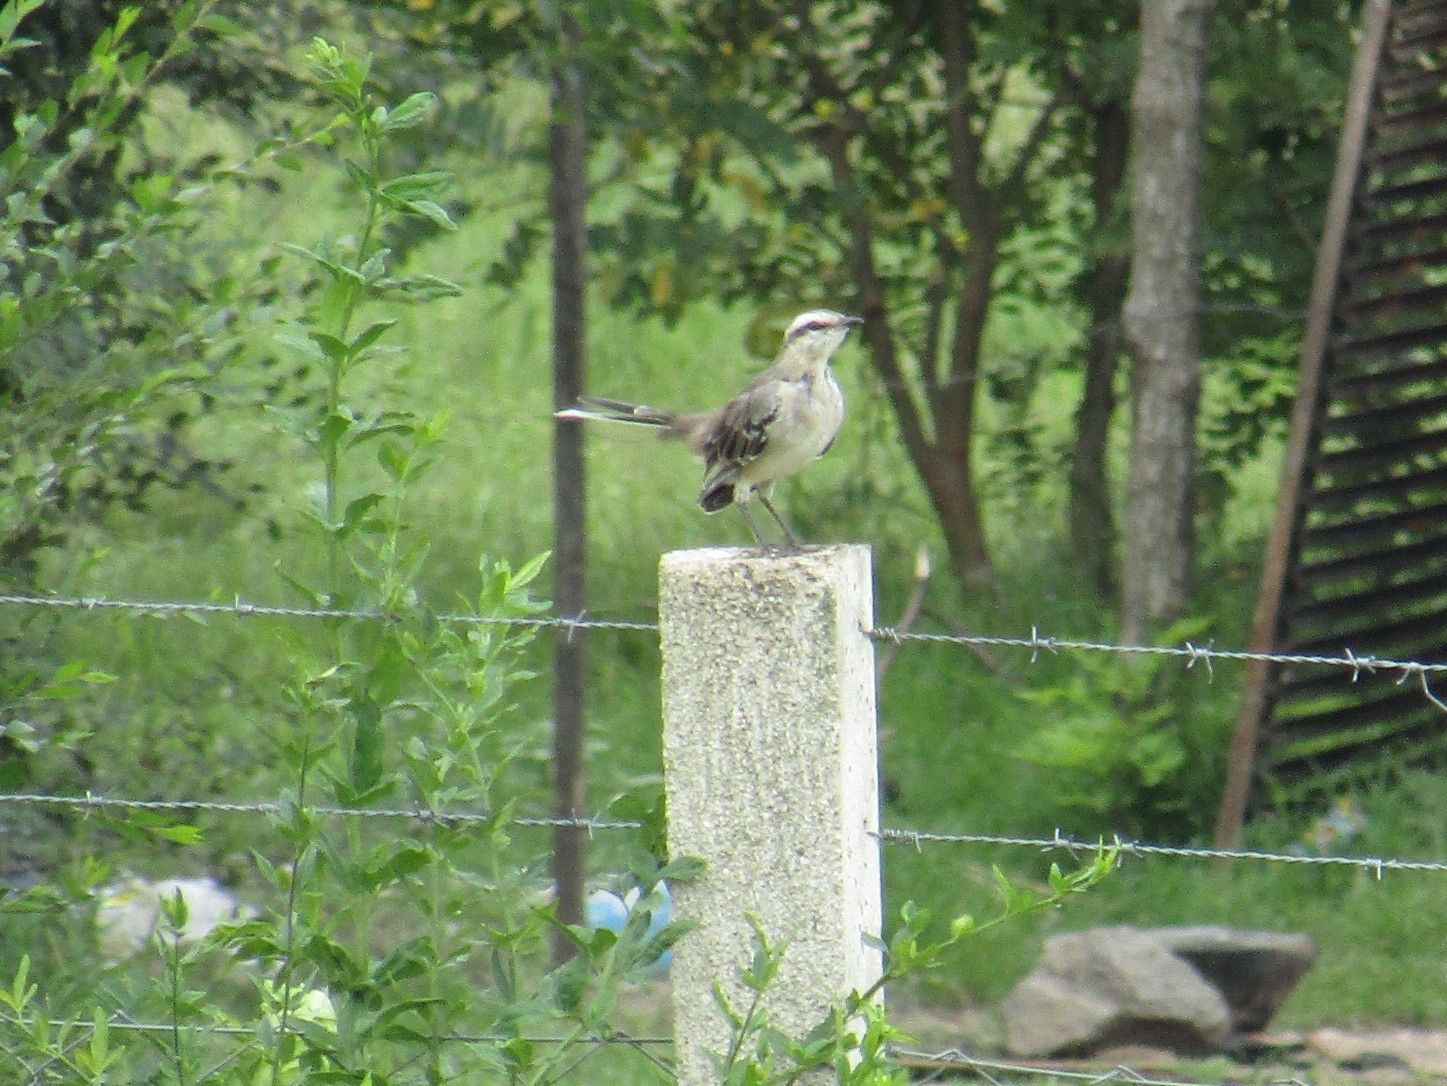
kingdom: Animalia
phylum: Chordata
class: Aves
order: Passeriformes
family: Mimidae
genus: Mimus
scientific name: Mimus saturninus
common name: Chalk-browed mockingbird
